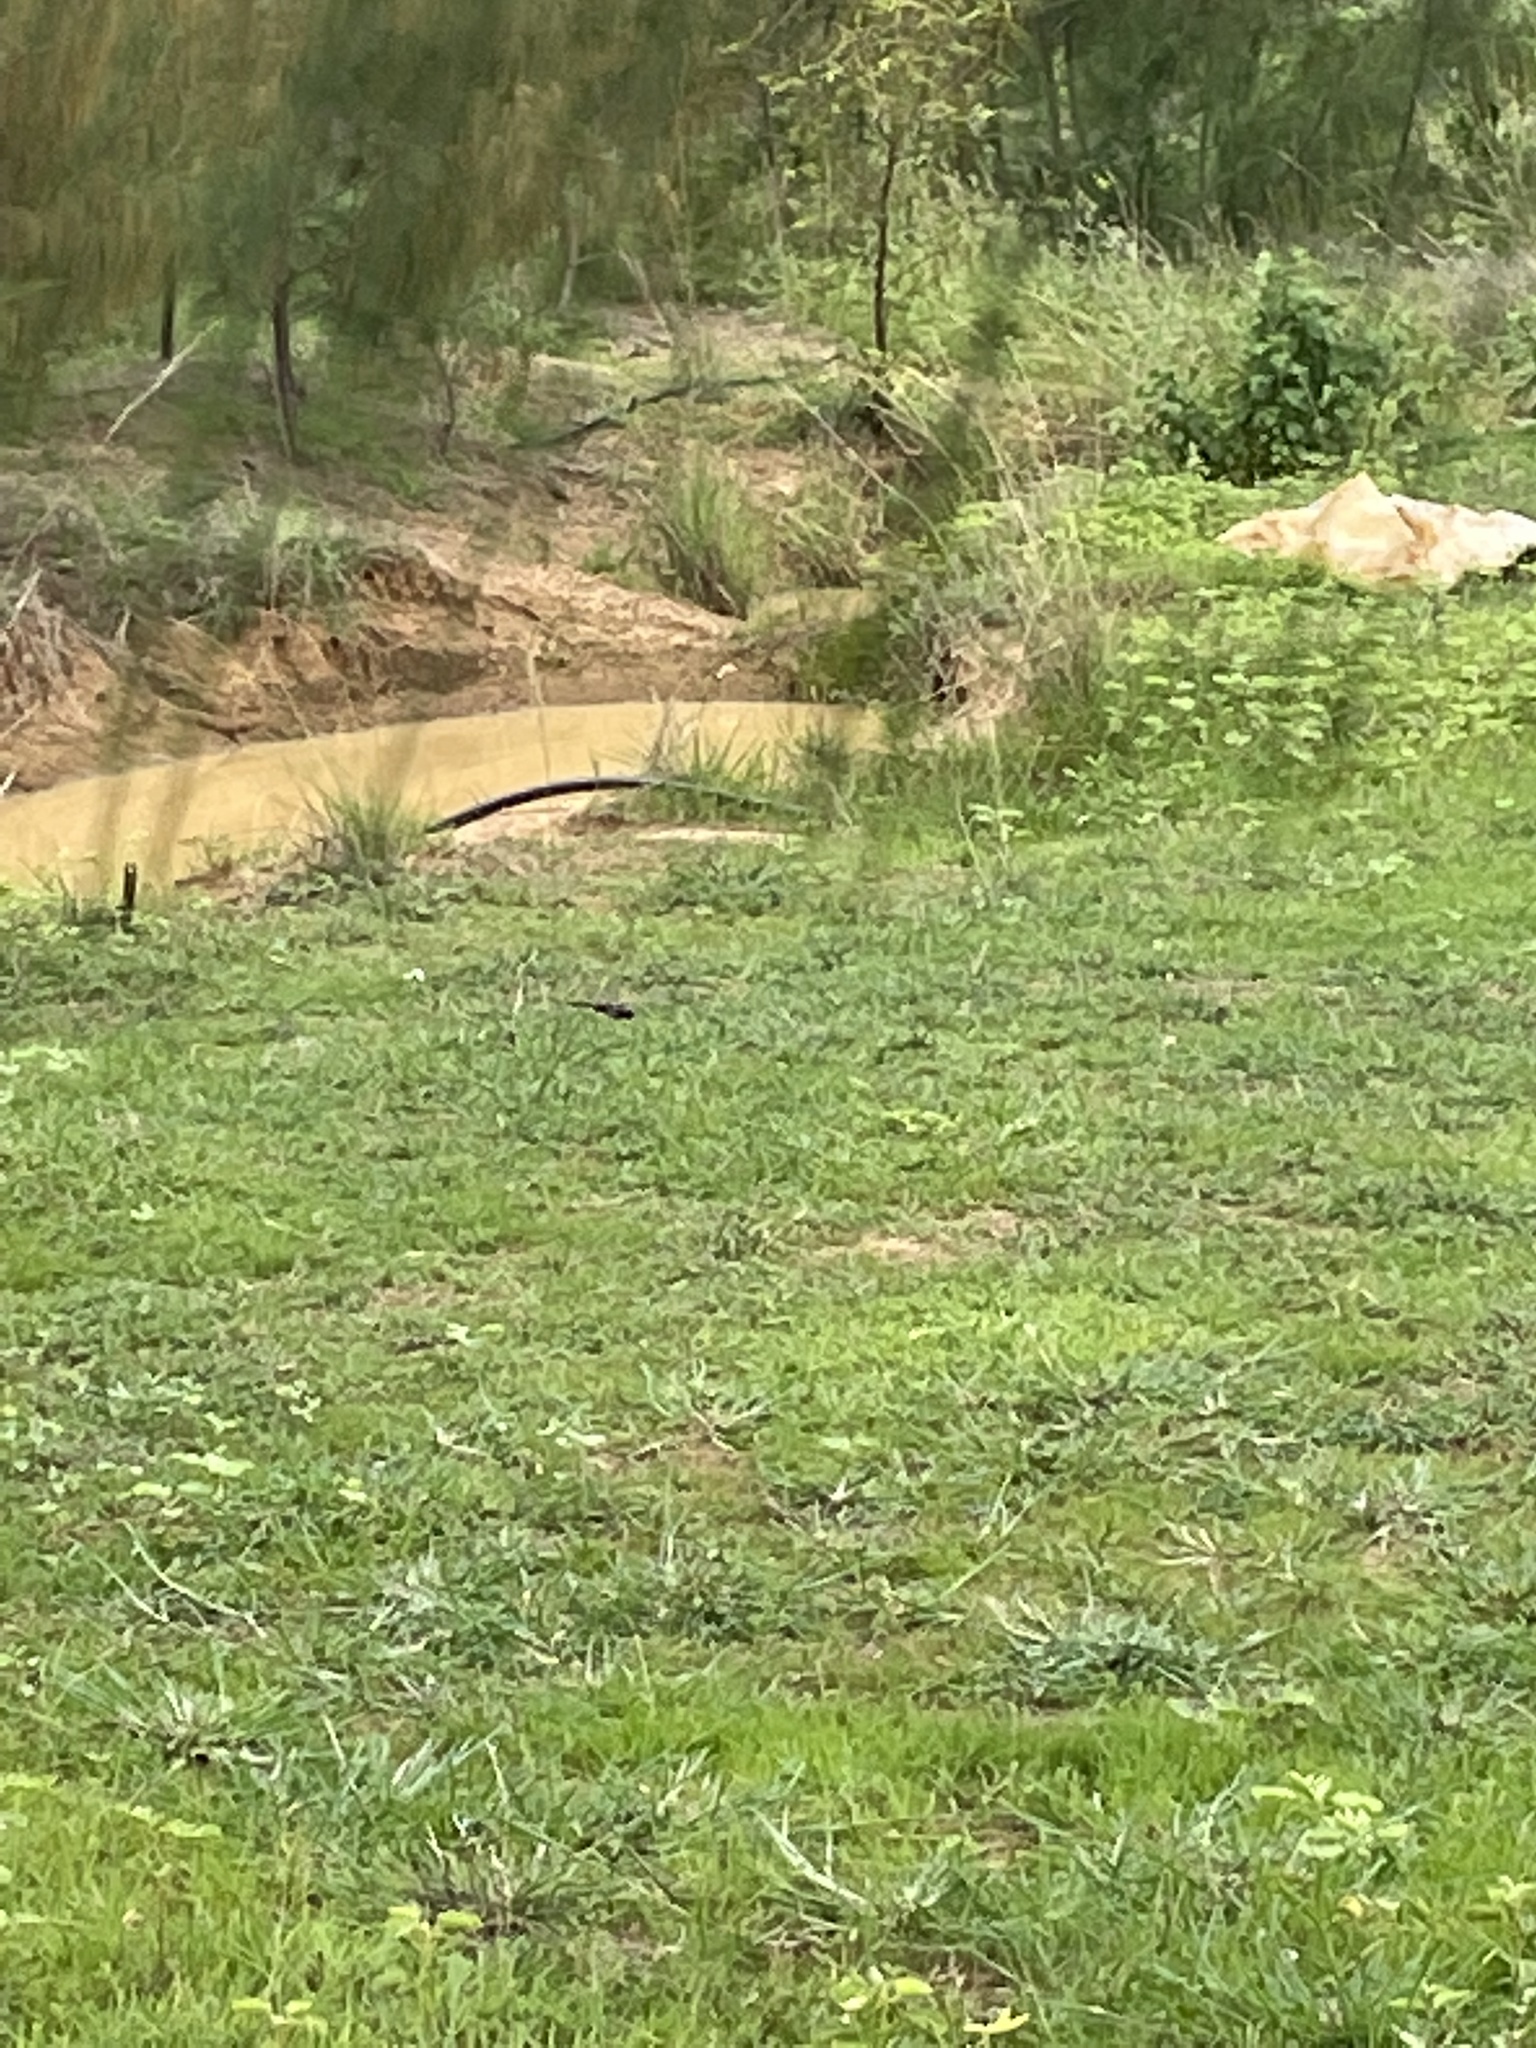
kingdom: Animalia
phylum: Arthropoda
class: Insecta
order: Odonata
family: Libellulidae
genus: Tramea
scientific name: Tramea limbata
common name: Ferruginous glider
